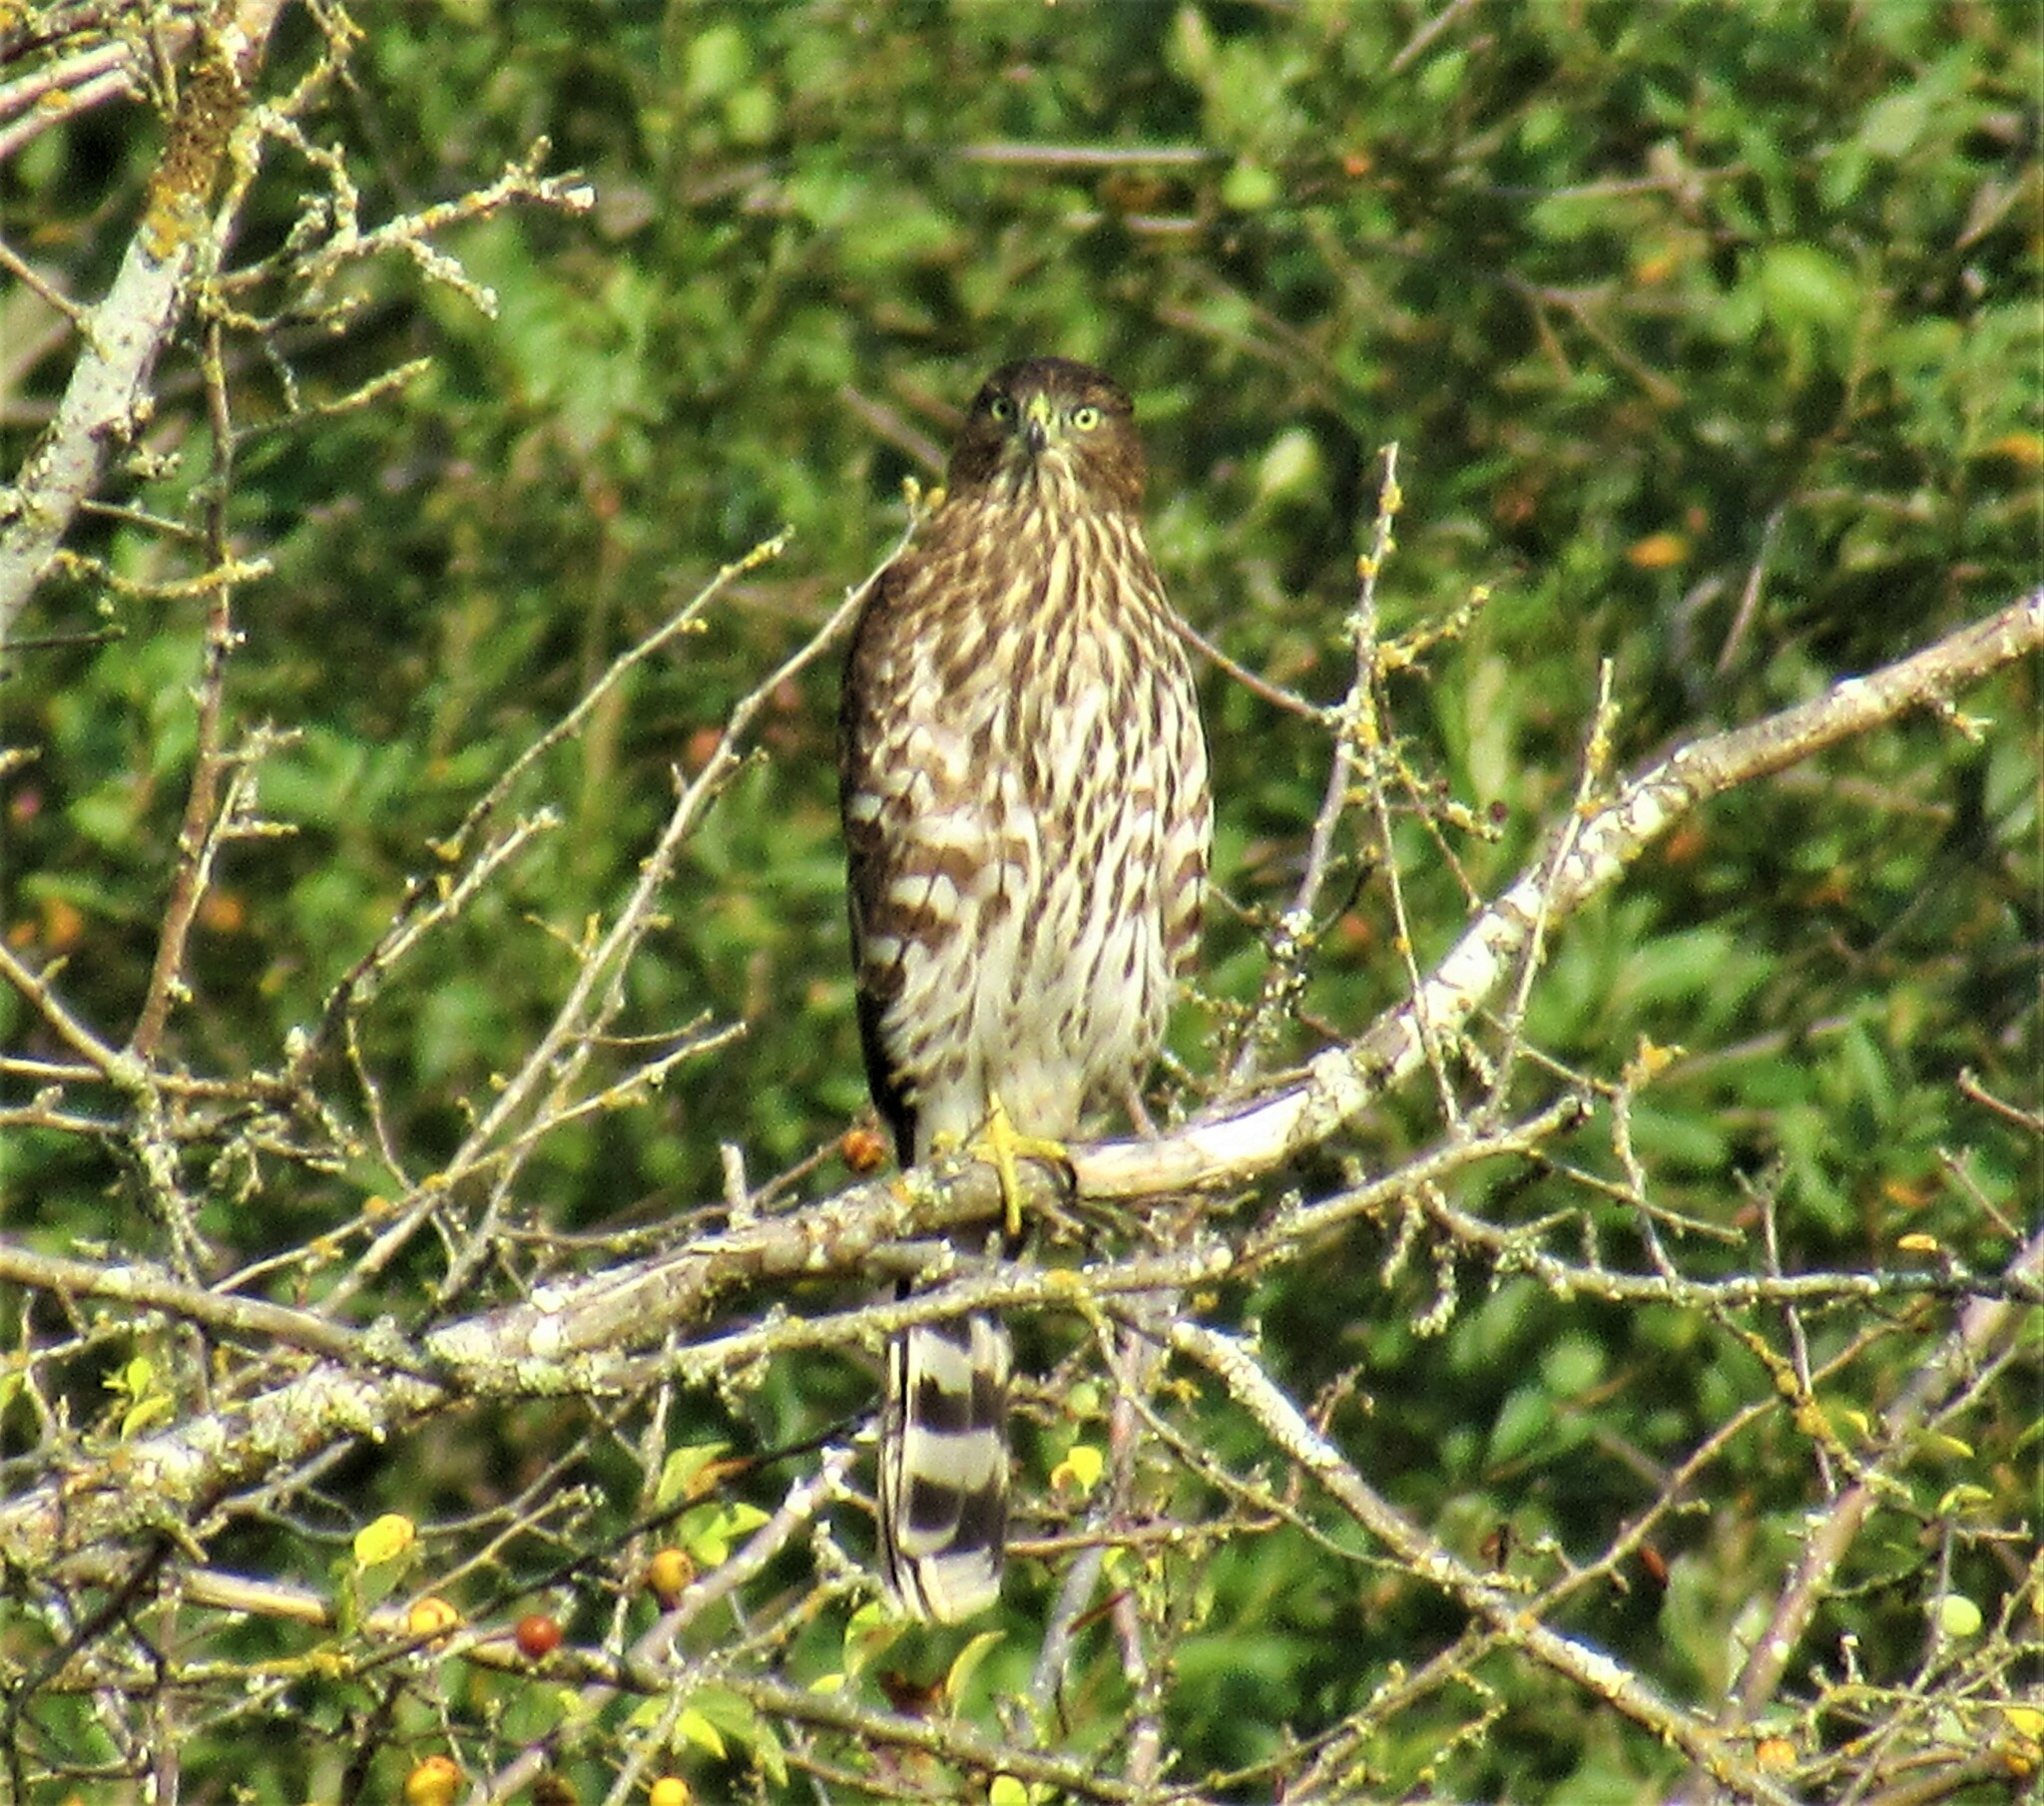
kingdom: Animalia
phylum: Chordata
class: Aves
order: Accipitriformes
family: Accipitridae
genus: Accipiter
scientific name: Accipiter cooperii
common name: Cooper's hawk
